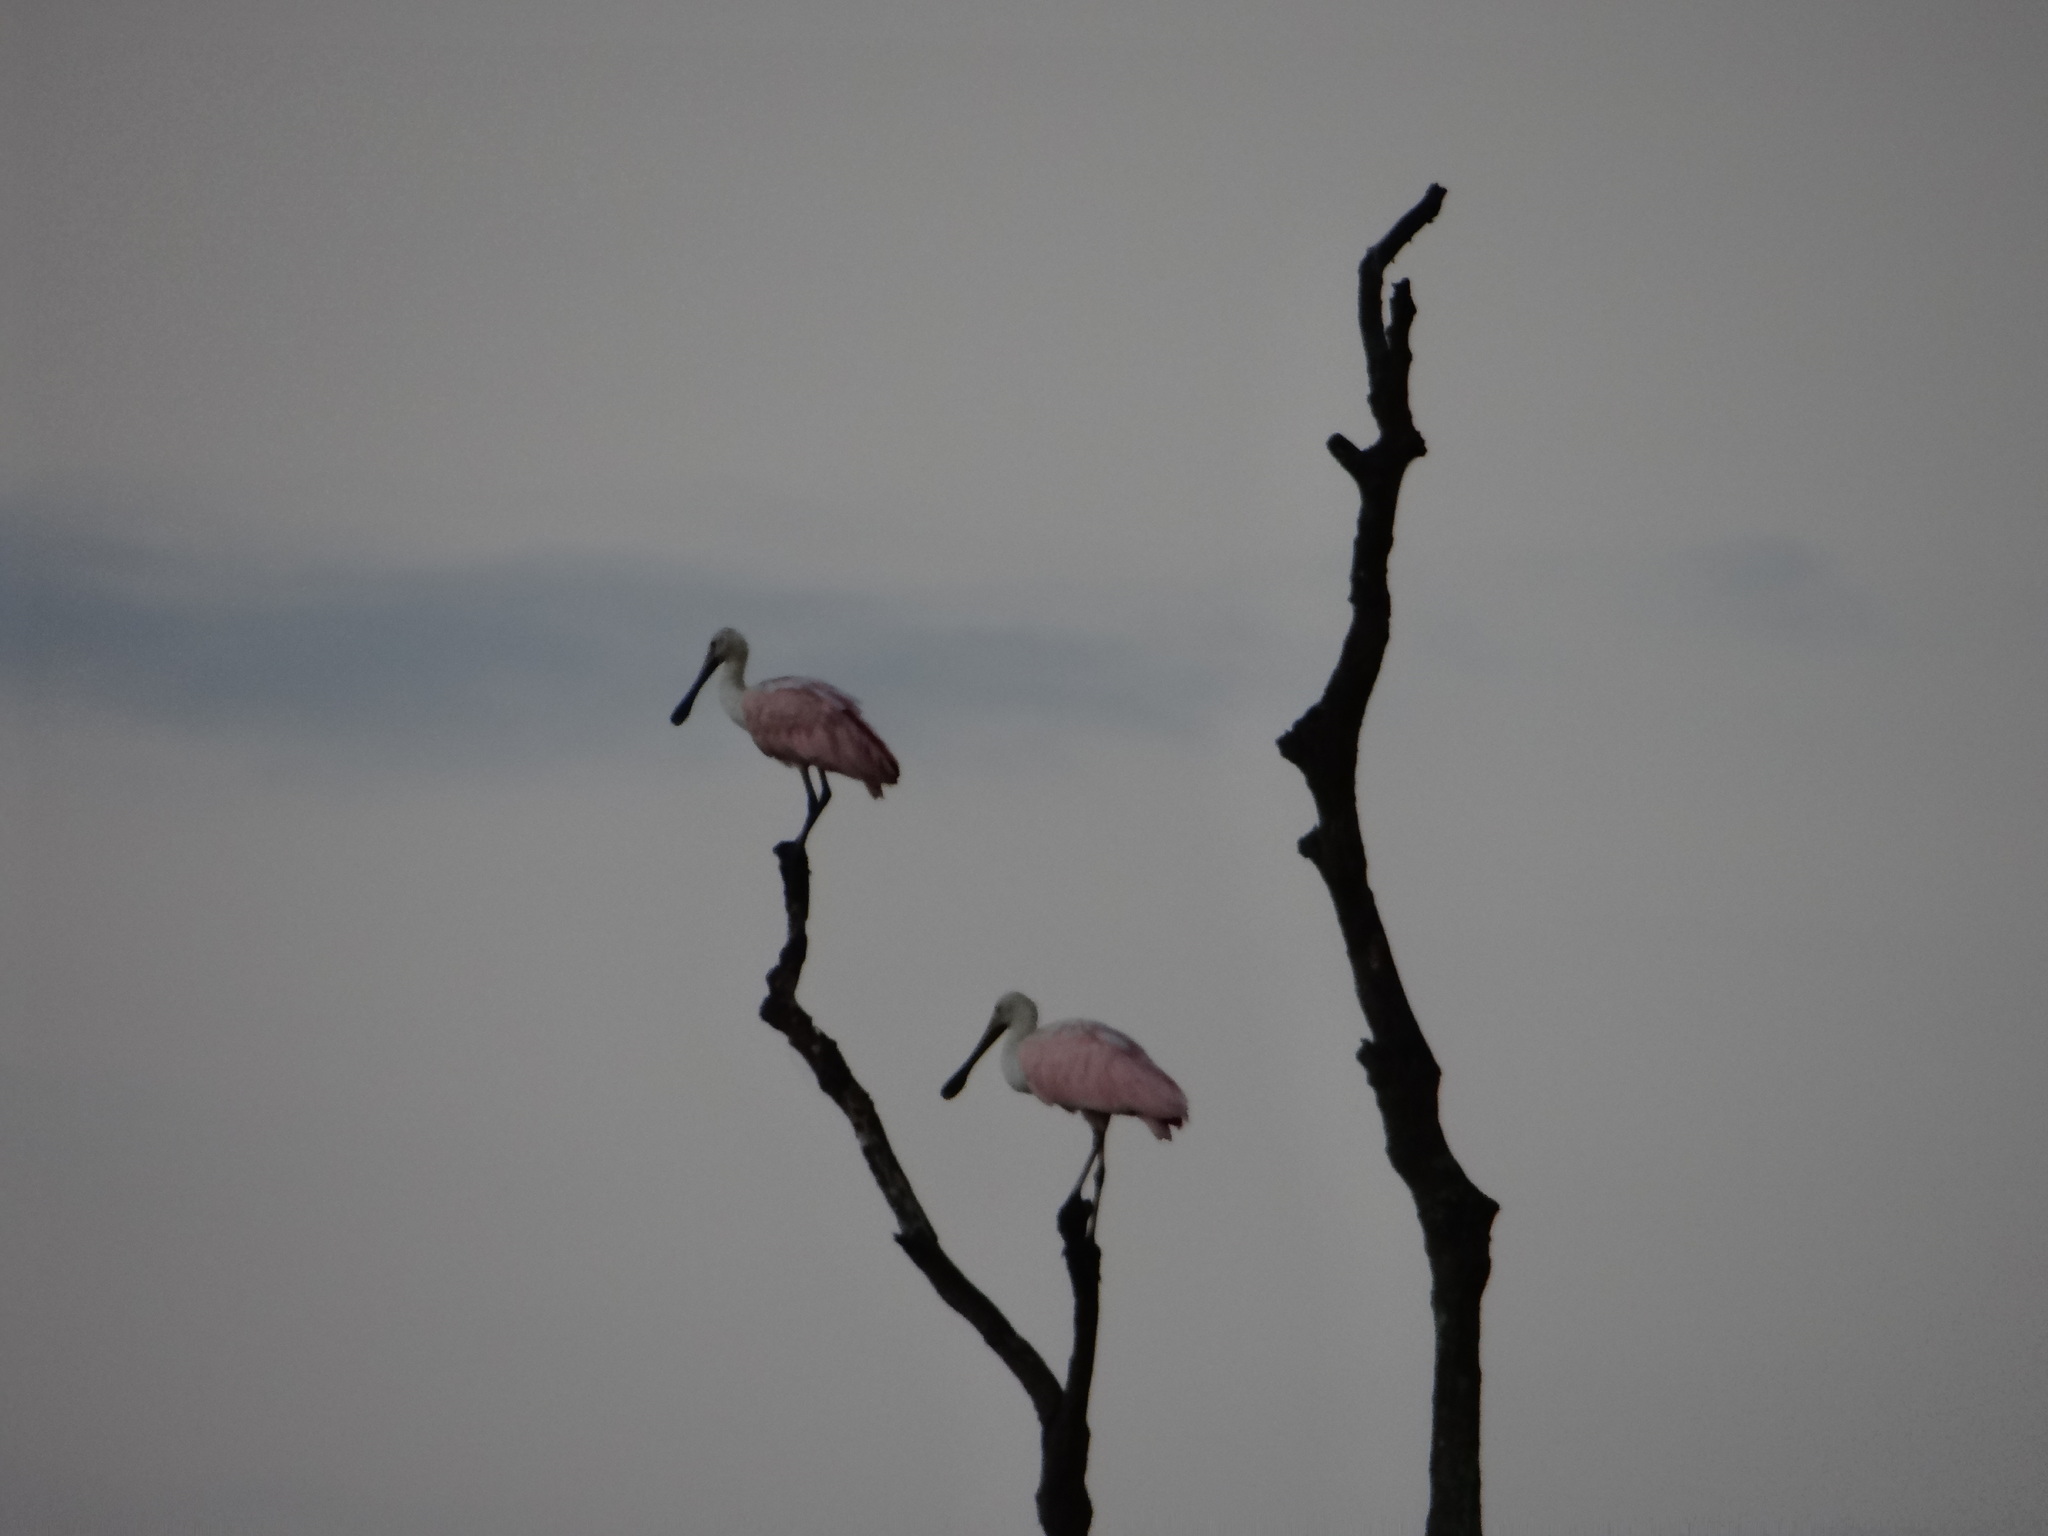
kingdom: Animalia
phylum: Chordata
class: Aves
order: Pelecaniformes
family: Threskiornithidae
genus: Platalea
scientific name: Platalea ajaja
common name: Roseate spoonbill
